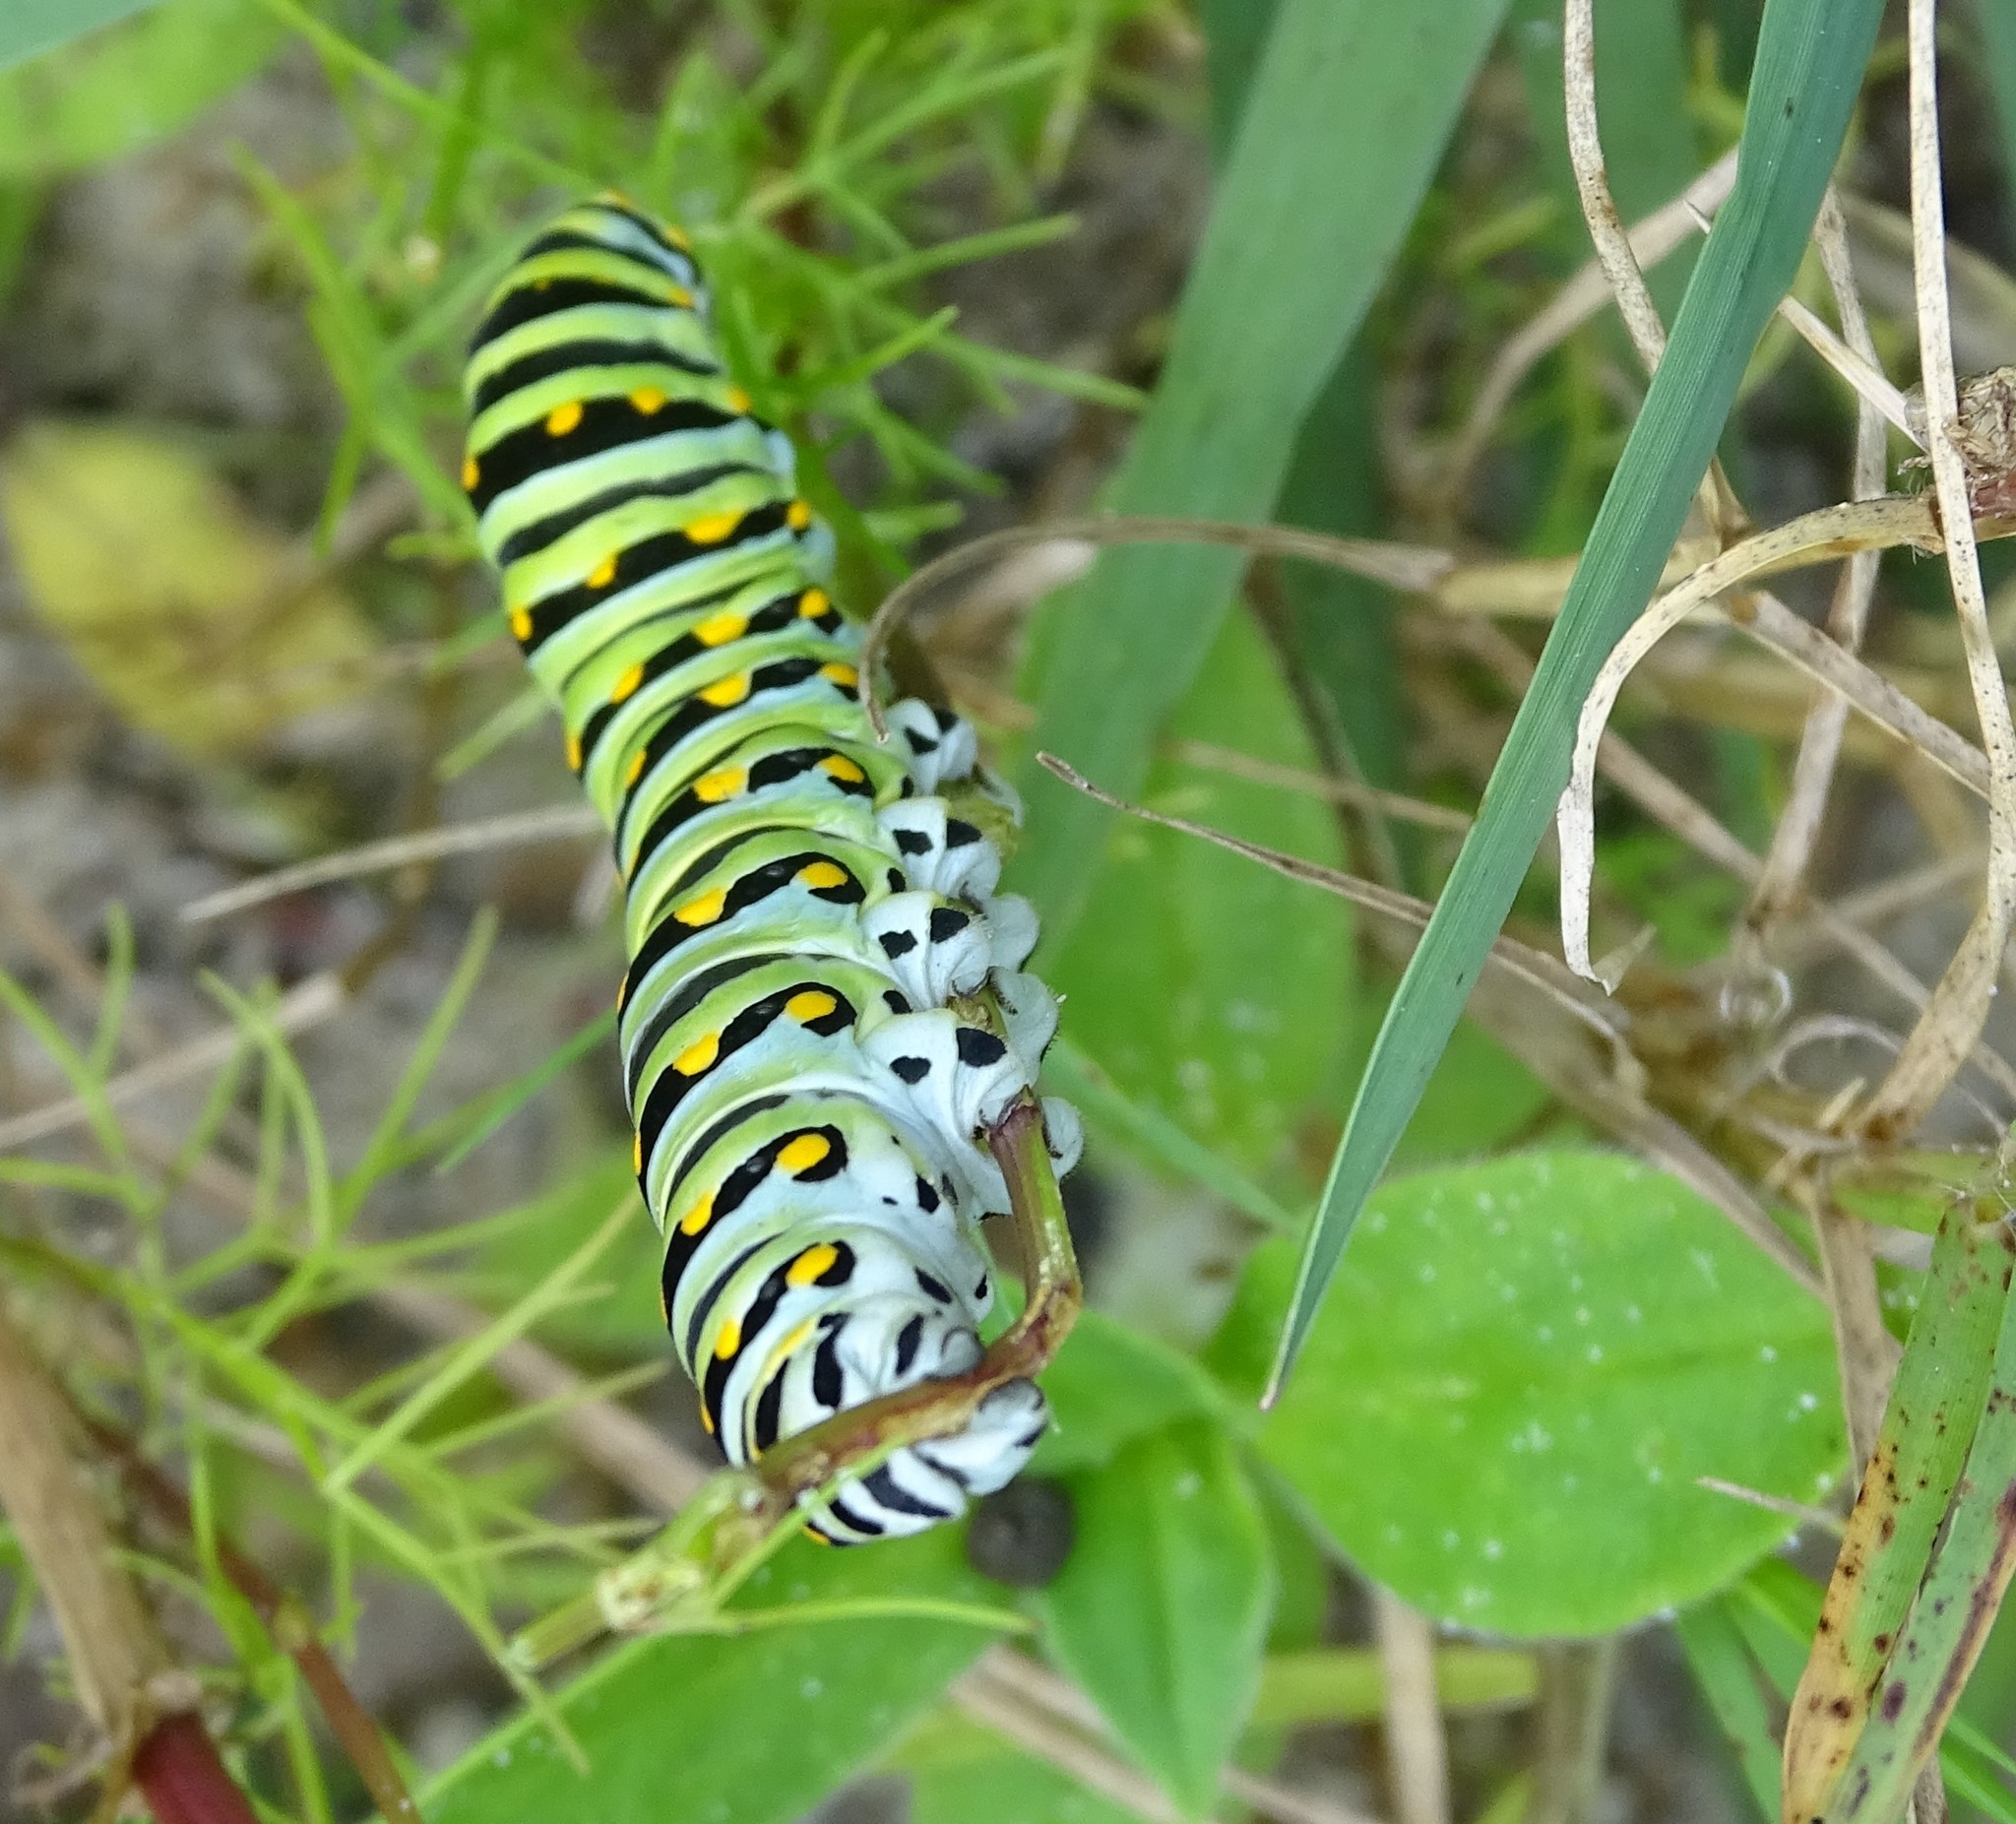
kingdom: Animalia
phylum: Arthropoda
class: Insecta
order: Lepidoptera
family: Papilionidae
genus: Papilio
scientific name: Papilio polyxenes
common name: Black swallowtail
